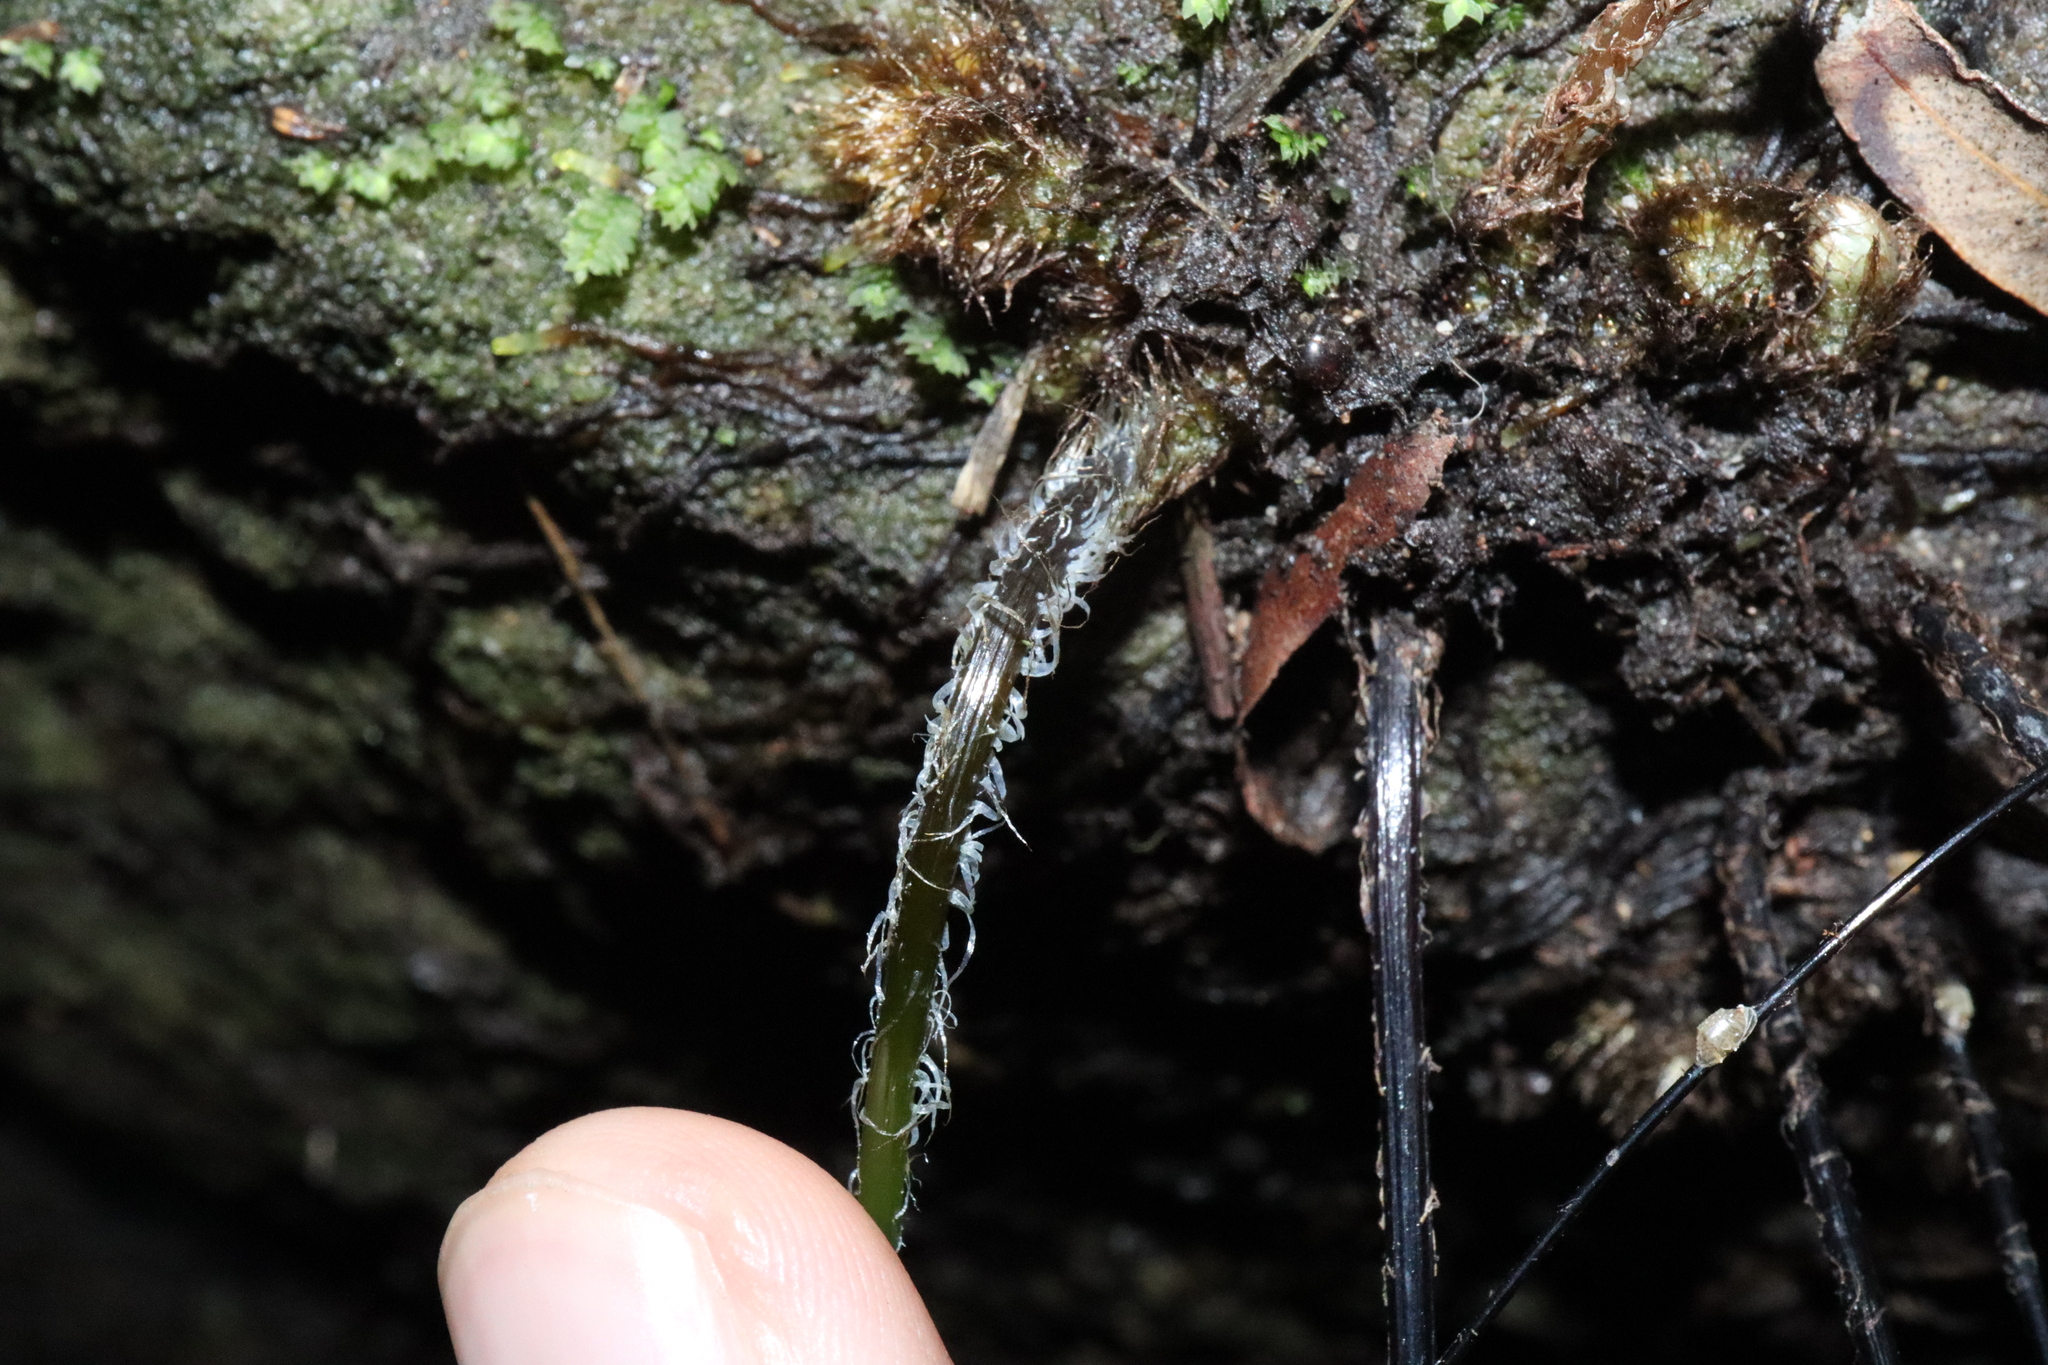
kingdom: Plantae
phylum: Tracheophyta
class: Polypodiopsida
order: Polypodiales
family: Pteridaceae
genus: Adiantum
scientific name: Adiantum capillus-veneris
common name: Maidenhair fern
